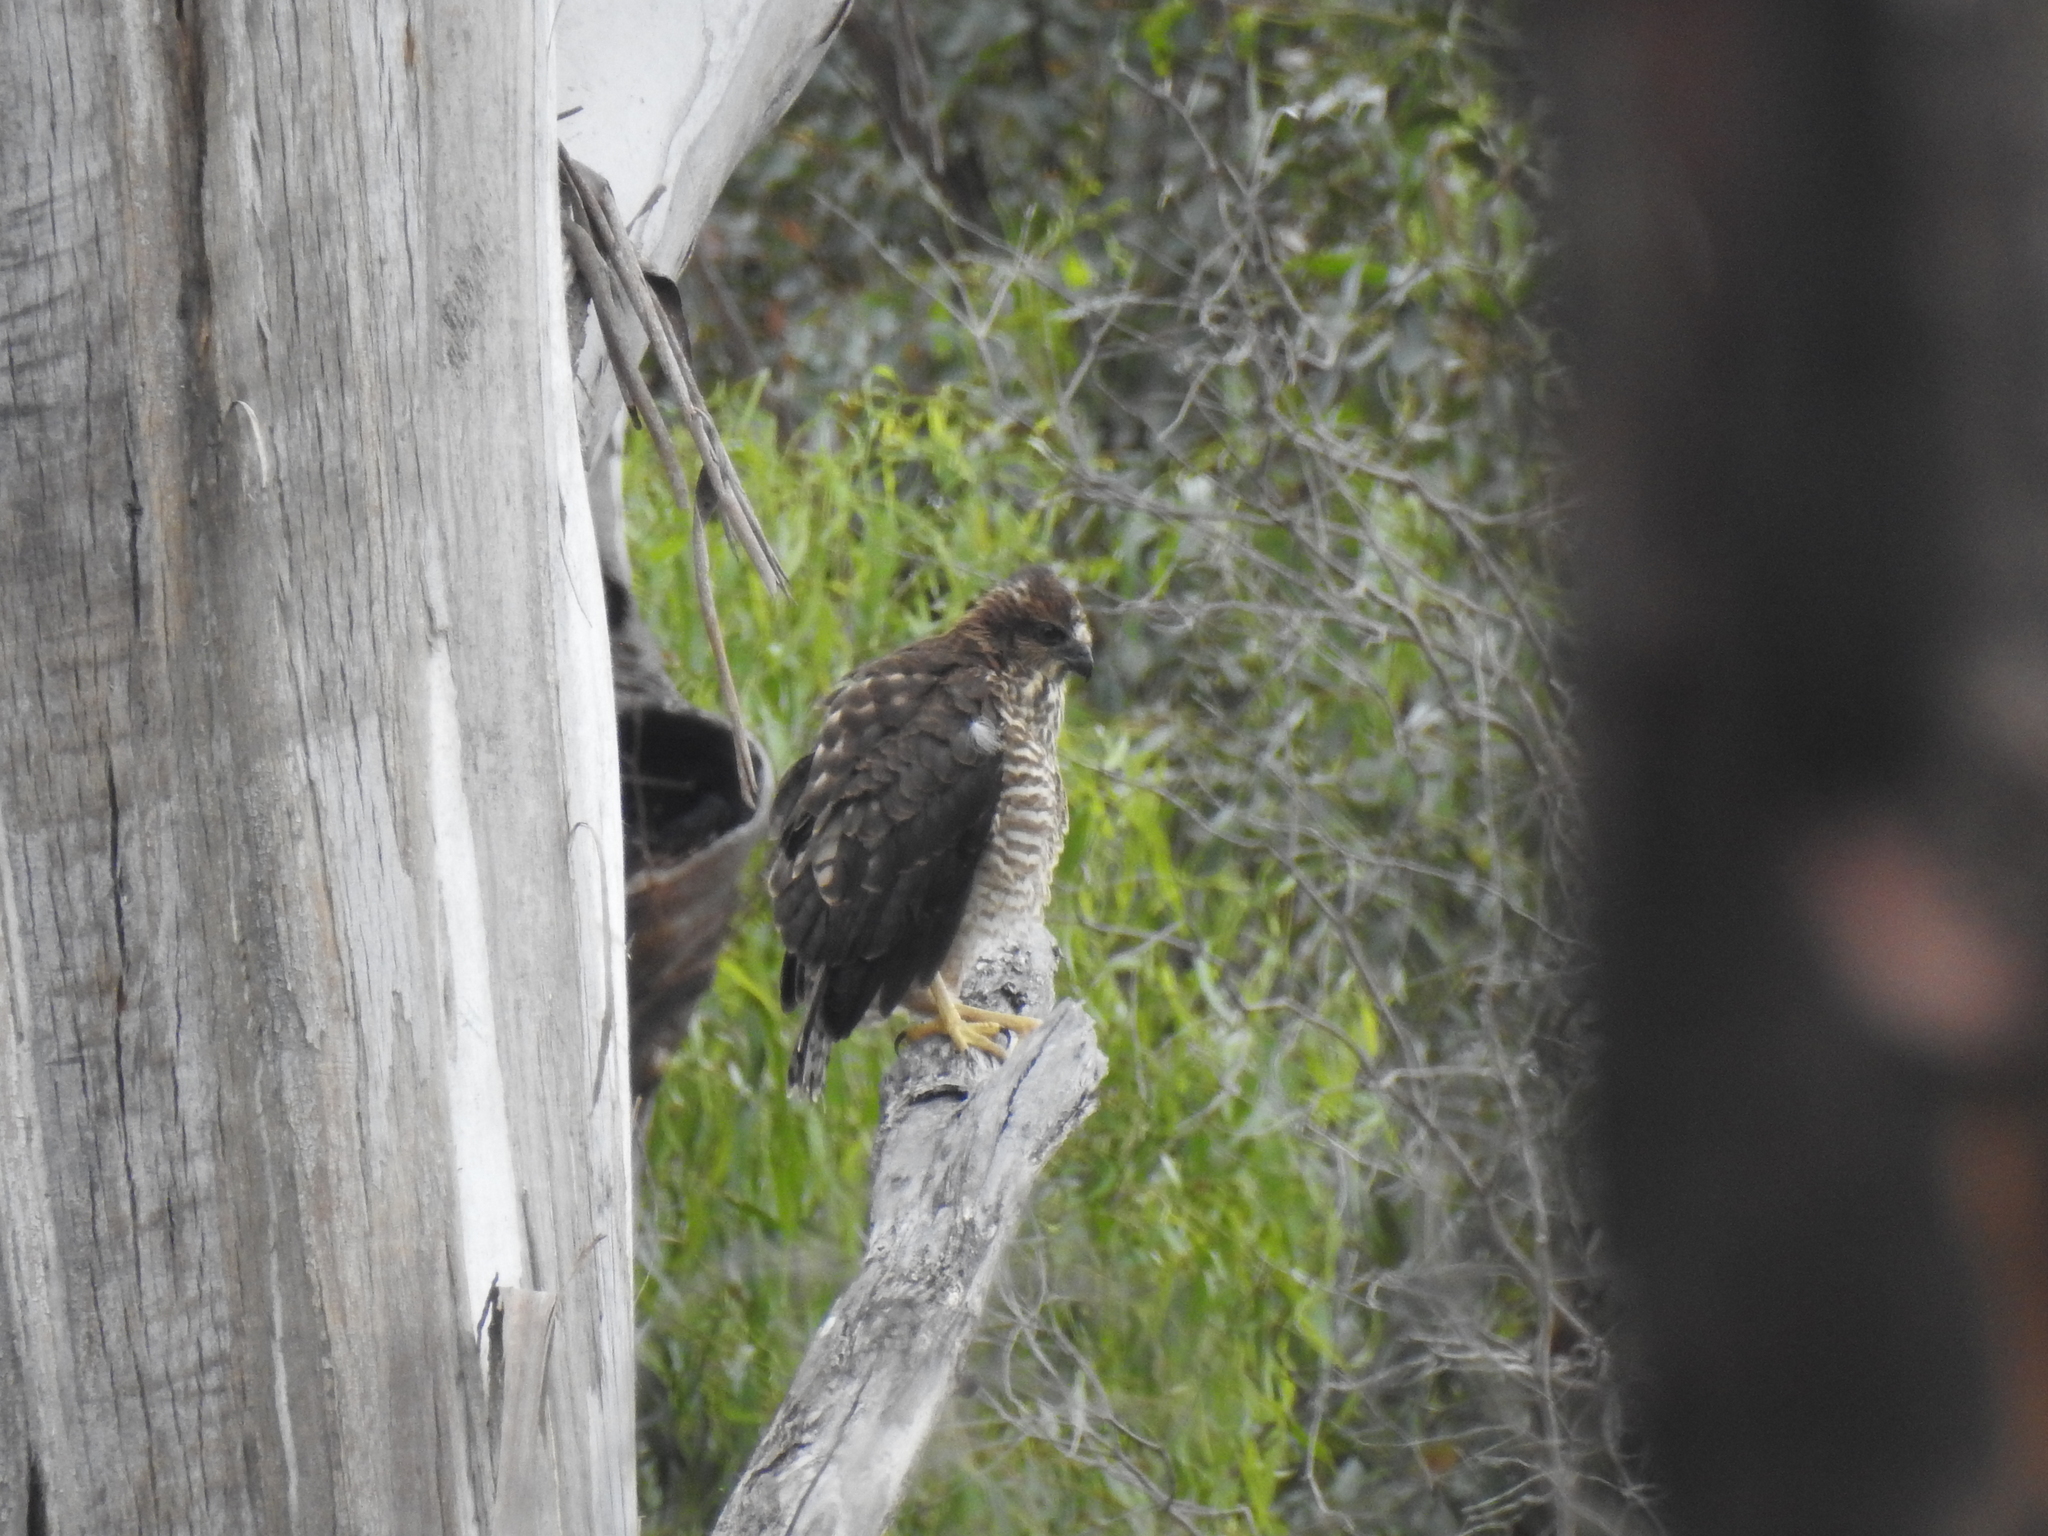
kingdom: Animalia
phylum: Chordata
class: Aves
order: Accipitriformes
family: Accipitridae
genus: Accipiter
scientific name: Accipiter fasciatus
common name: Brown goshawk
